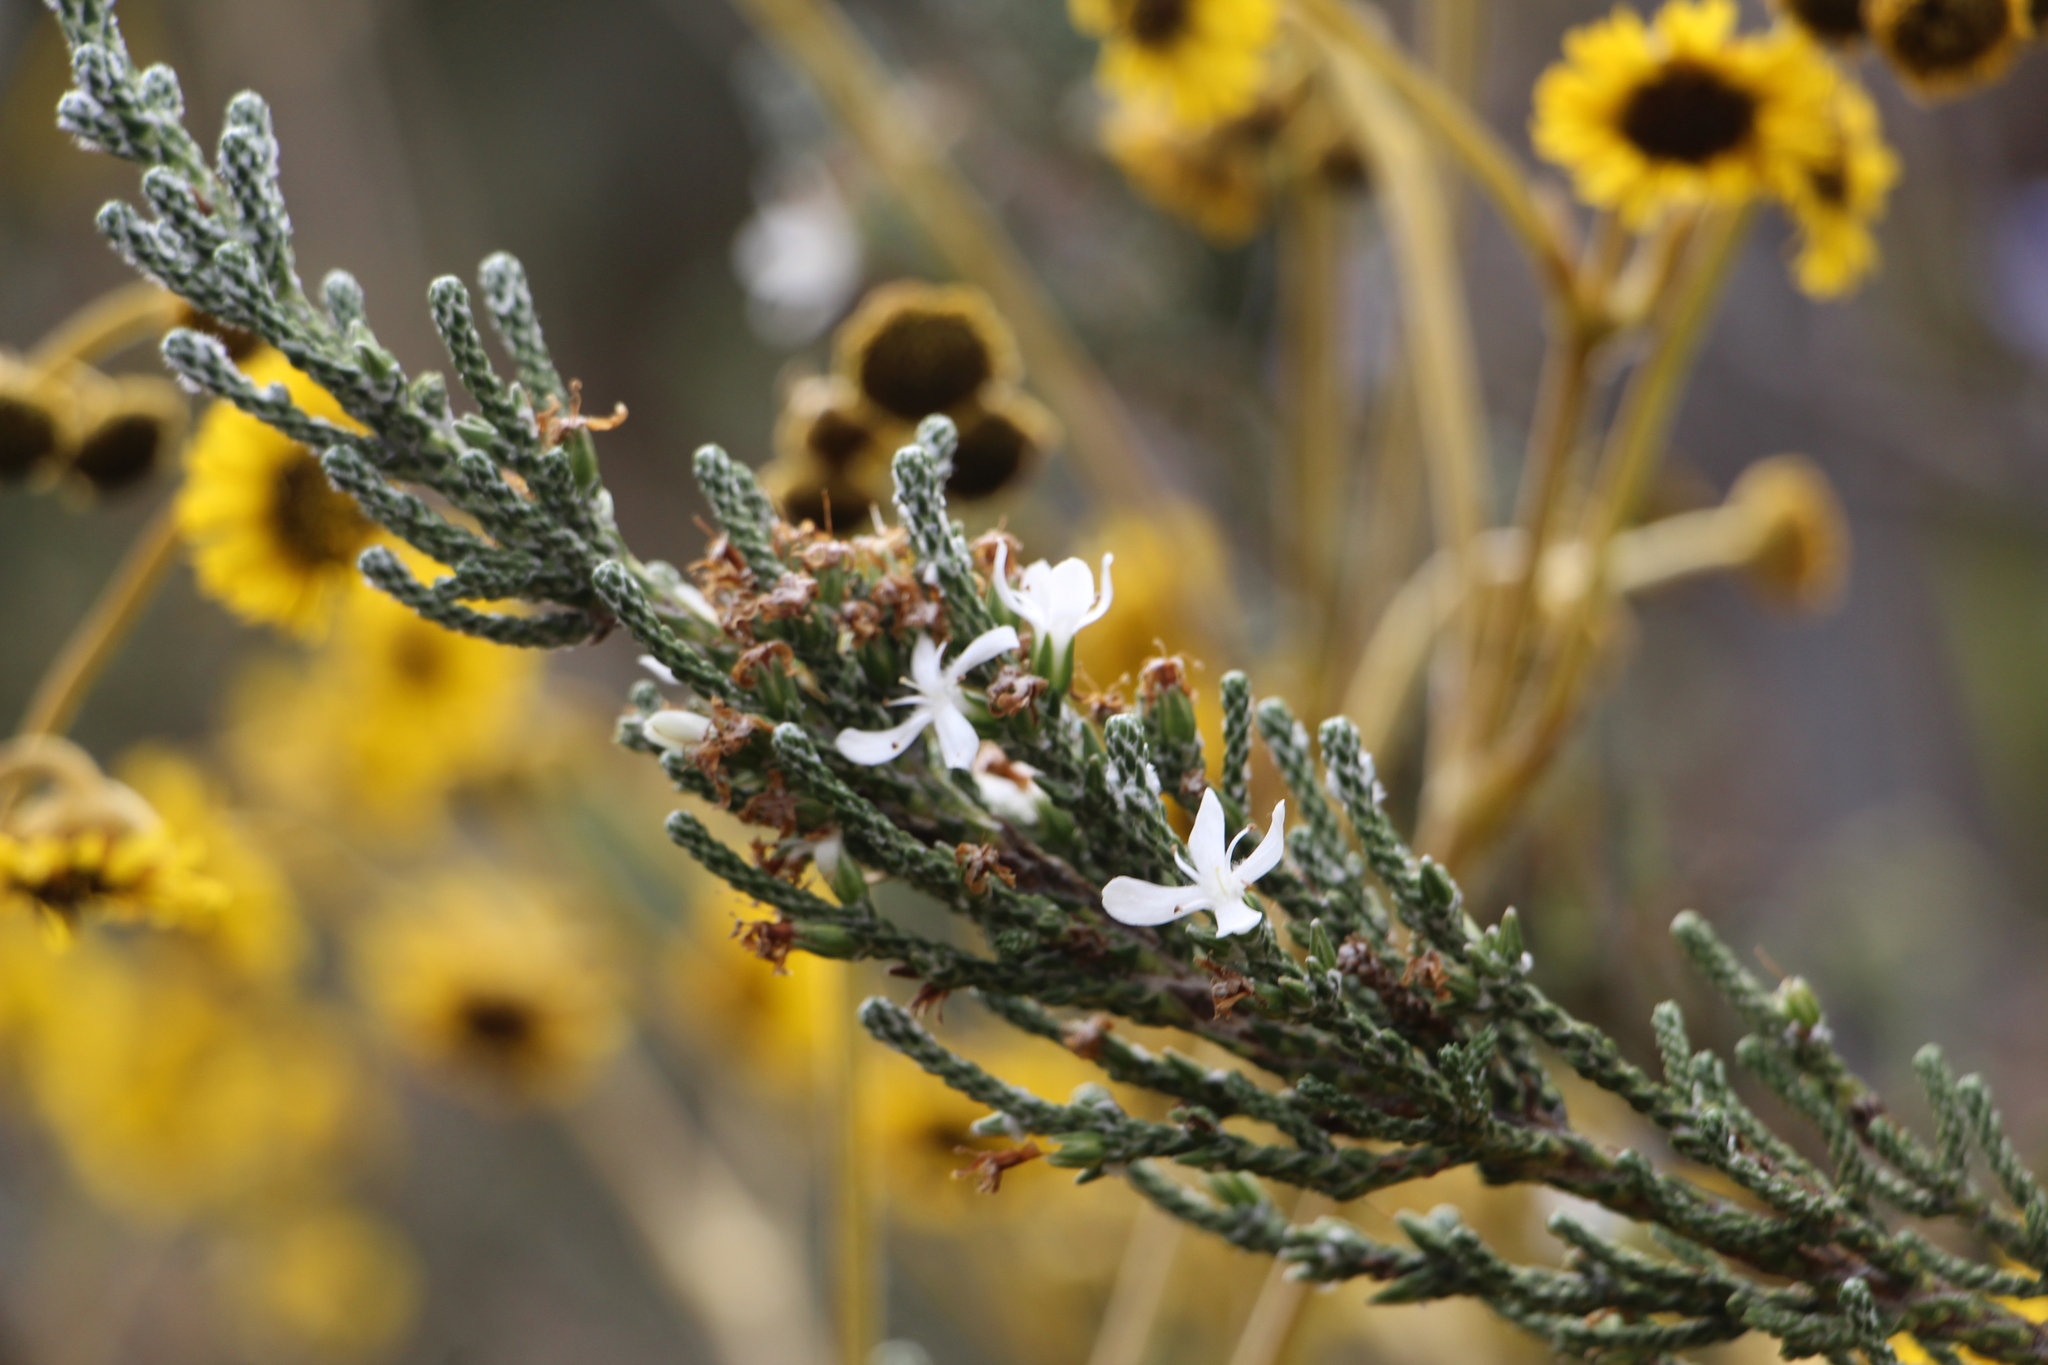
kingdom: Plantae
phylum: Tracheophyta
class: Magnoliopsida
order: Lamiales
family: Plantaginaceae
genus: Aragoa
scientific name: Aragoa cupressina
